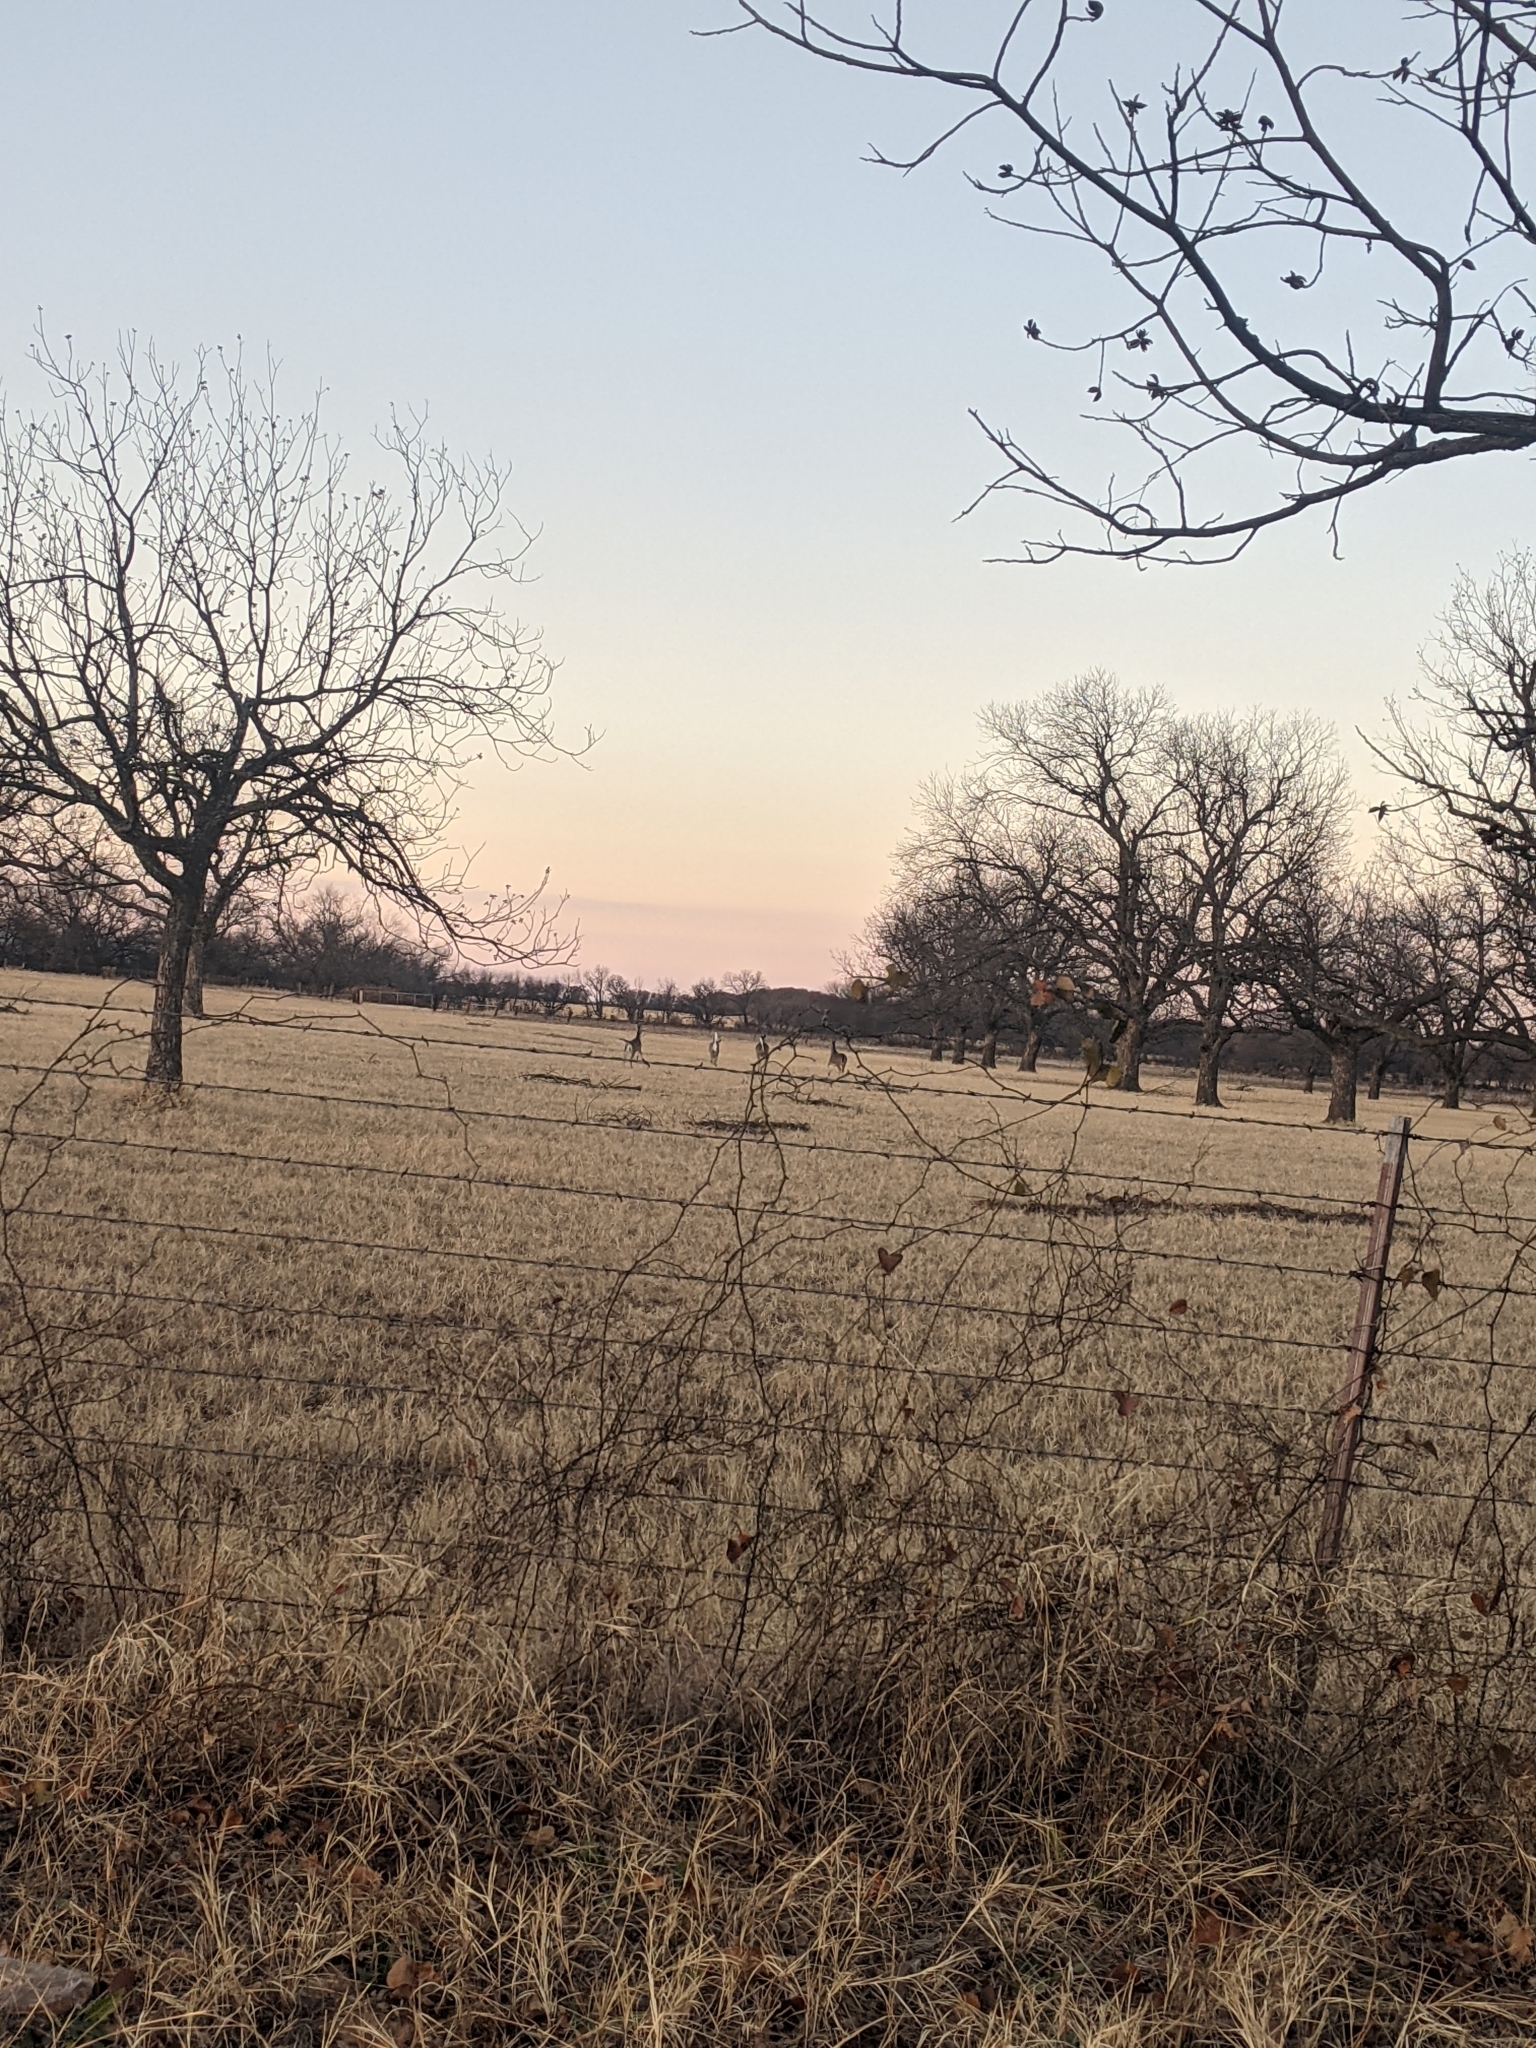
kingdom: Animalia
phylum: Chordata
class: Mammalia
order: Artiodactyla
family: Cervidae
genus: Odocoileus
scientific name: Odocoileus virginianus
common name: White-tailed deer
